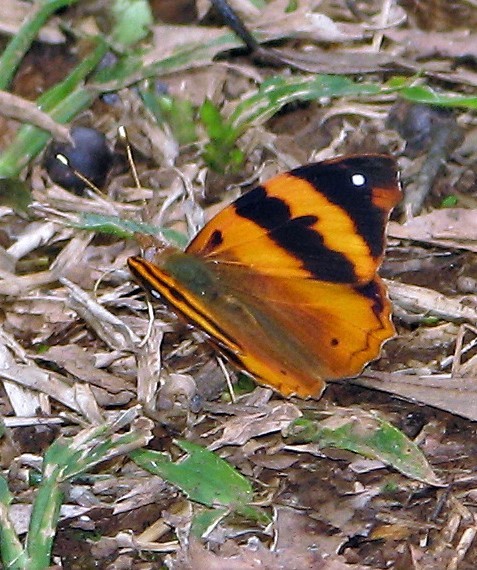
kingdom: Animalia
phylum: Arthropoda
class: Insecta
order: Lepidoptera
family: Nymphalidae
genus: Epiphile
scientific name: Epiphile hubneri
